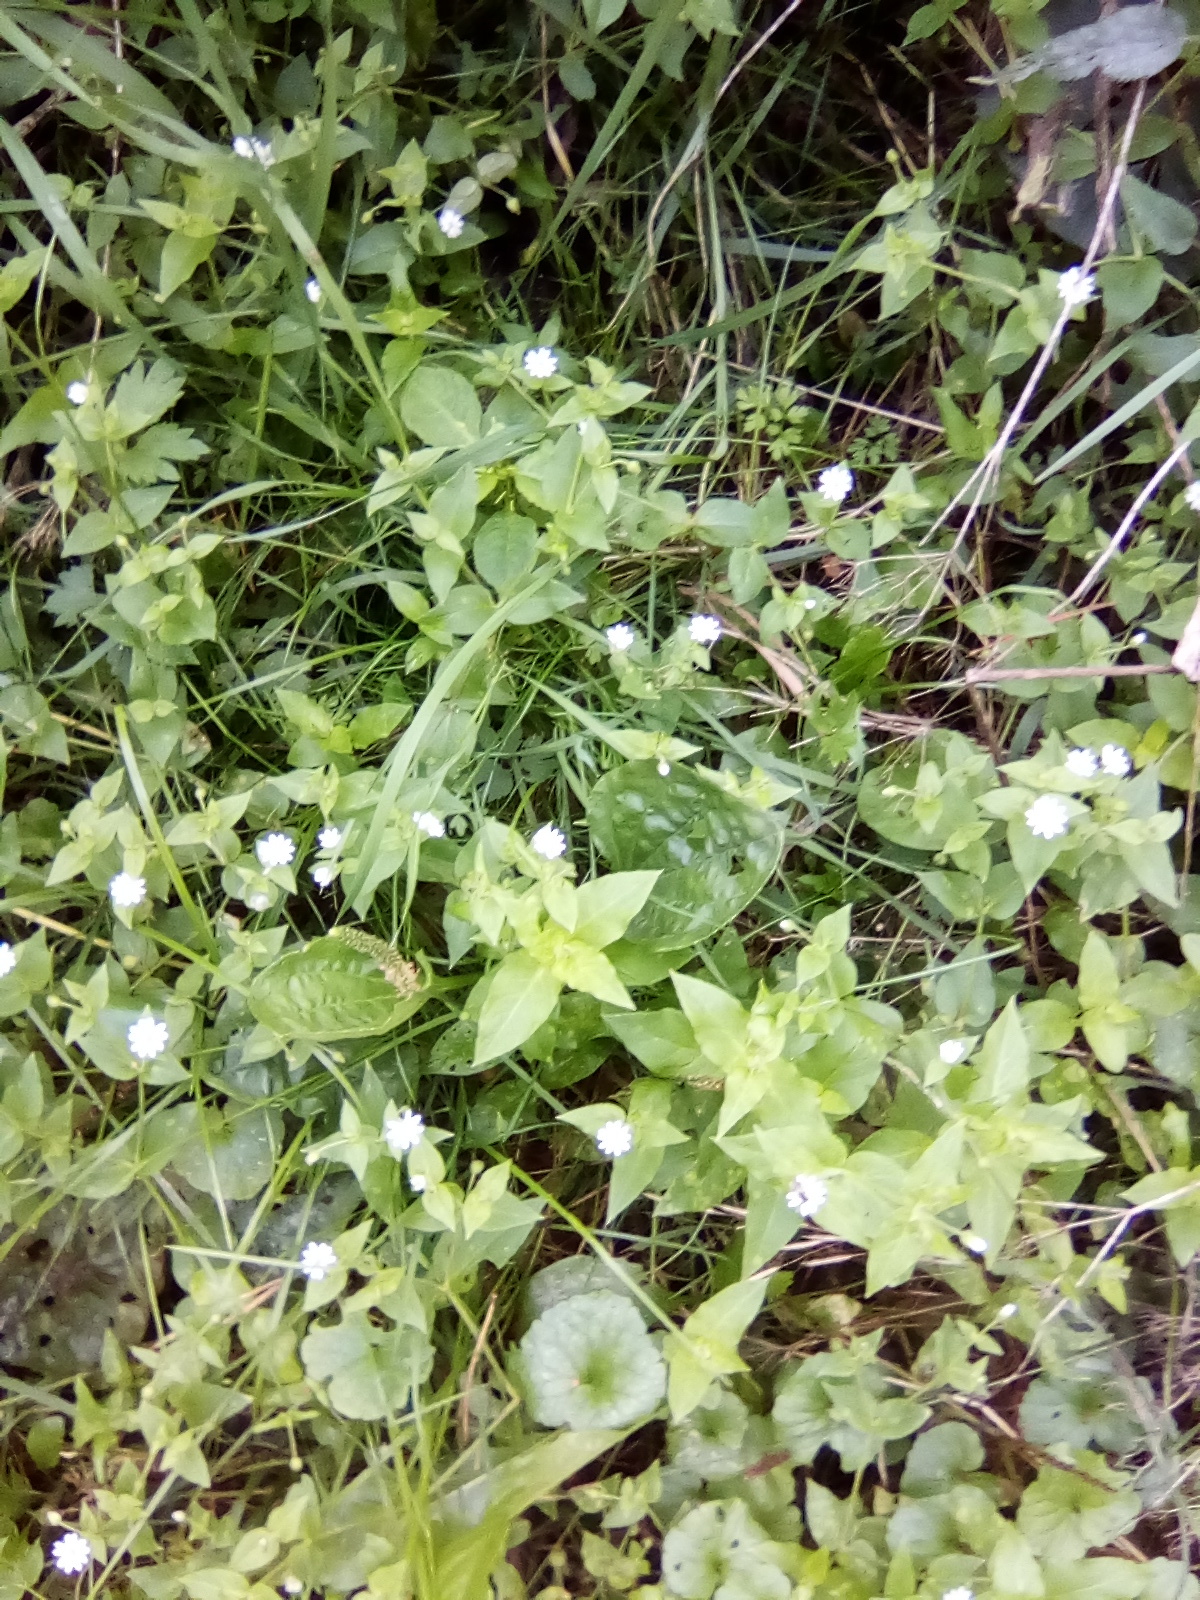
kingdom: Plantae
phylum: Tracheophyta
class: Magnoliopsida
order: Caryophyllales
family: Caryophyllaceae
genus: Stellaria
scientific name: Stellaria aquatica
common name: Water chickweed
